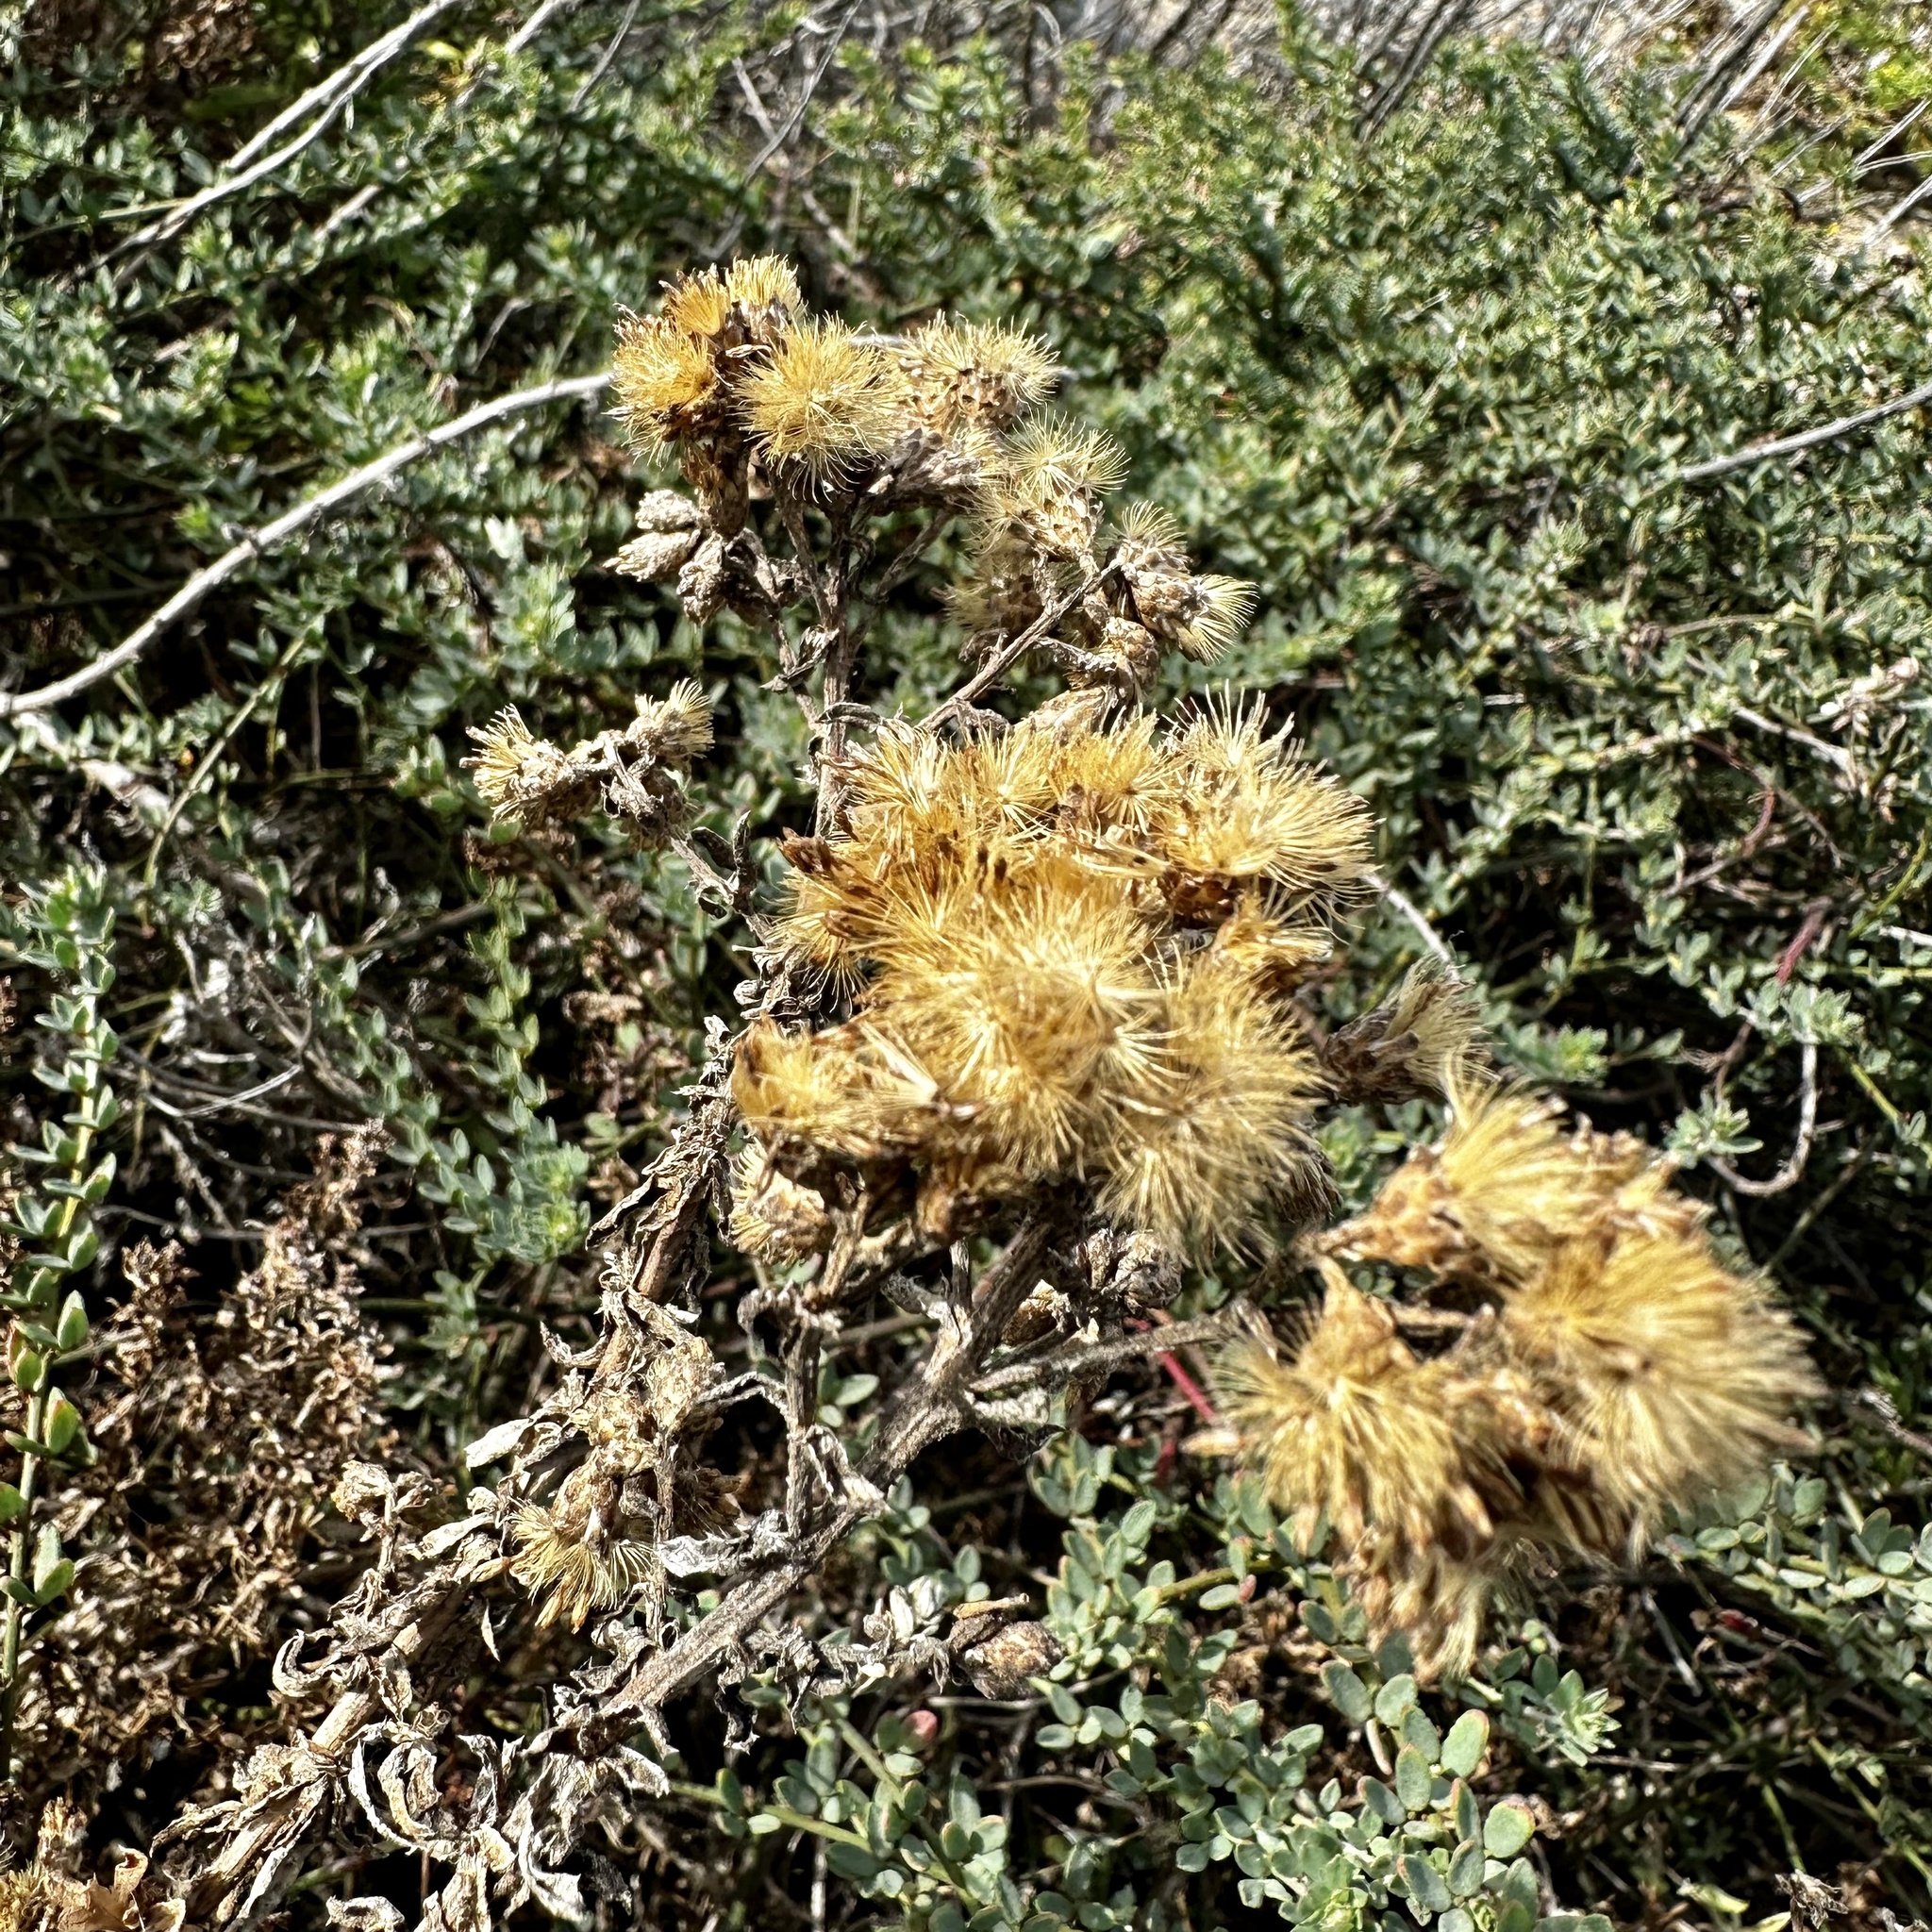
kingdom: Plantae
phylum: Tracheophyta
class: Magnoliopsida
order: Asterales
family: Asteraceae
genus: Isocoma
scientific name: Isocoma menziesii
